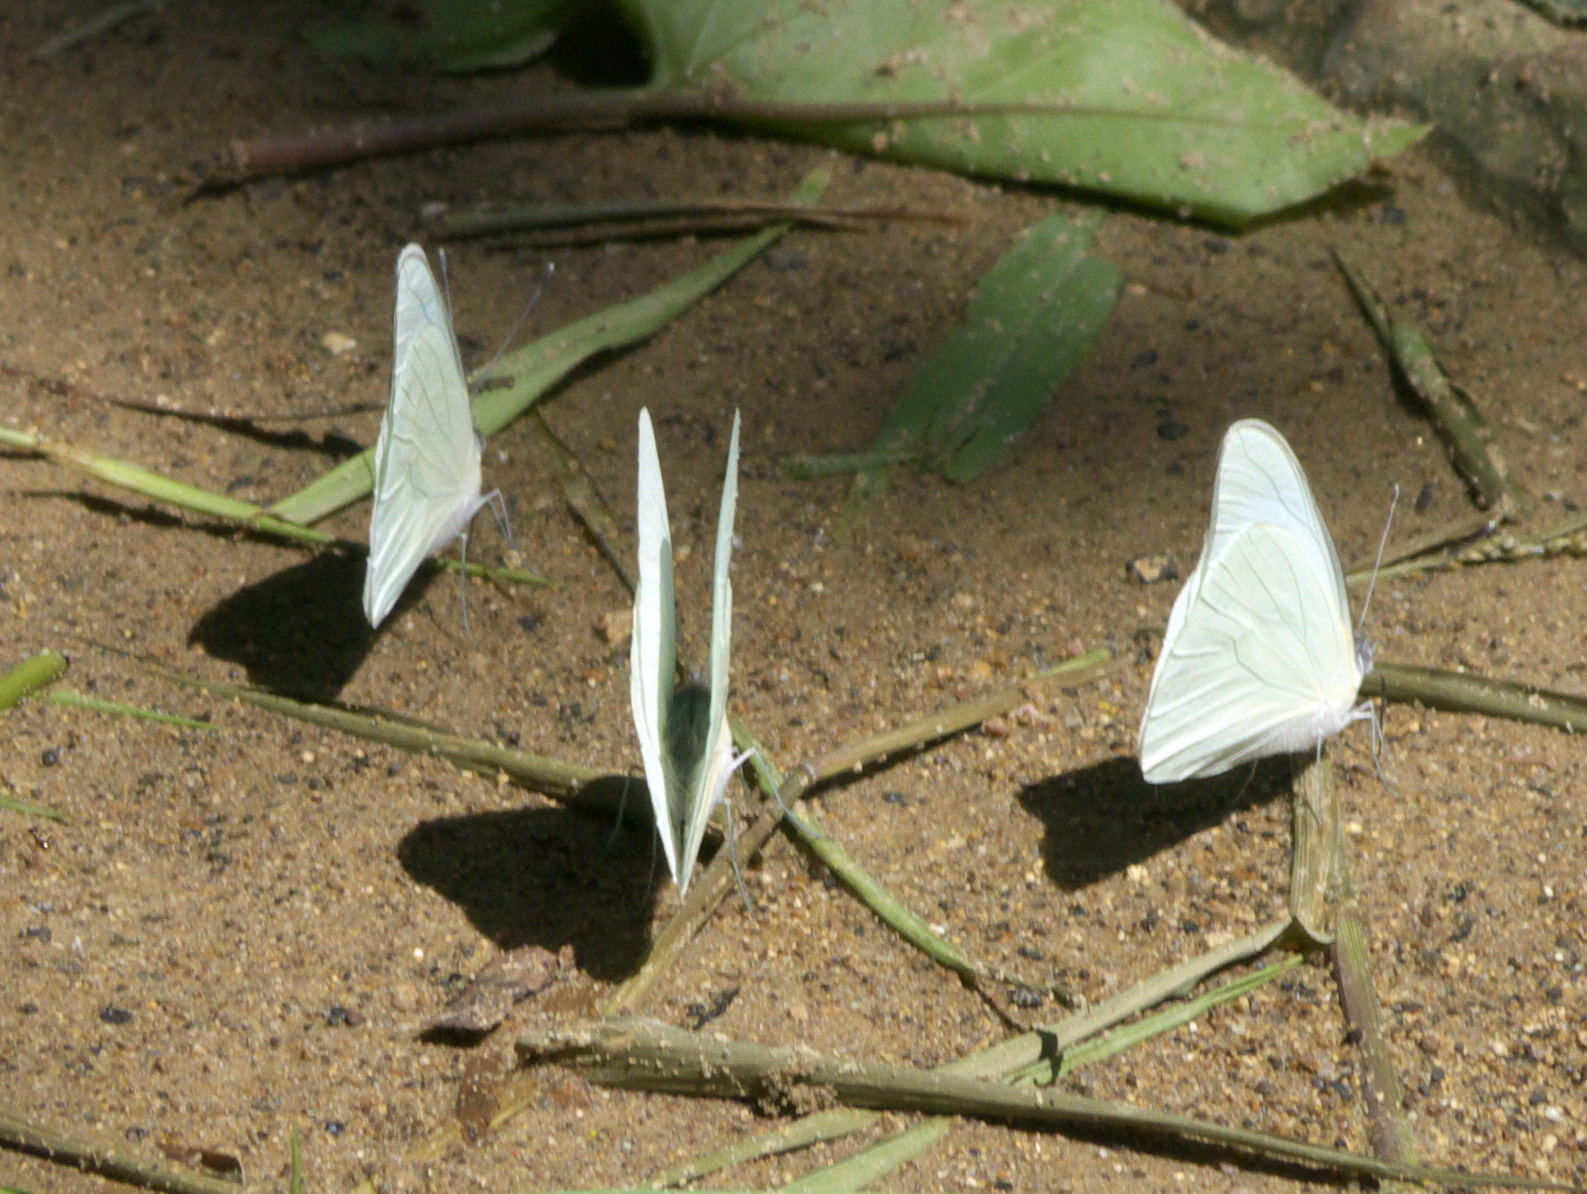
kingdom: Animalia
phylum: Arthropoda
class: Insecta
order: Lepidoptera
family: Pieridae
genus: Glutophrissa
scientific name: Glutophrissa drusilla
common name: Florida white
